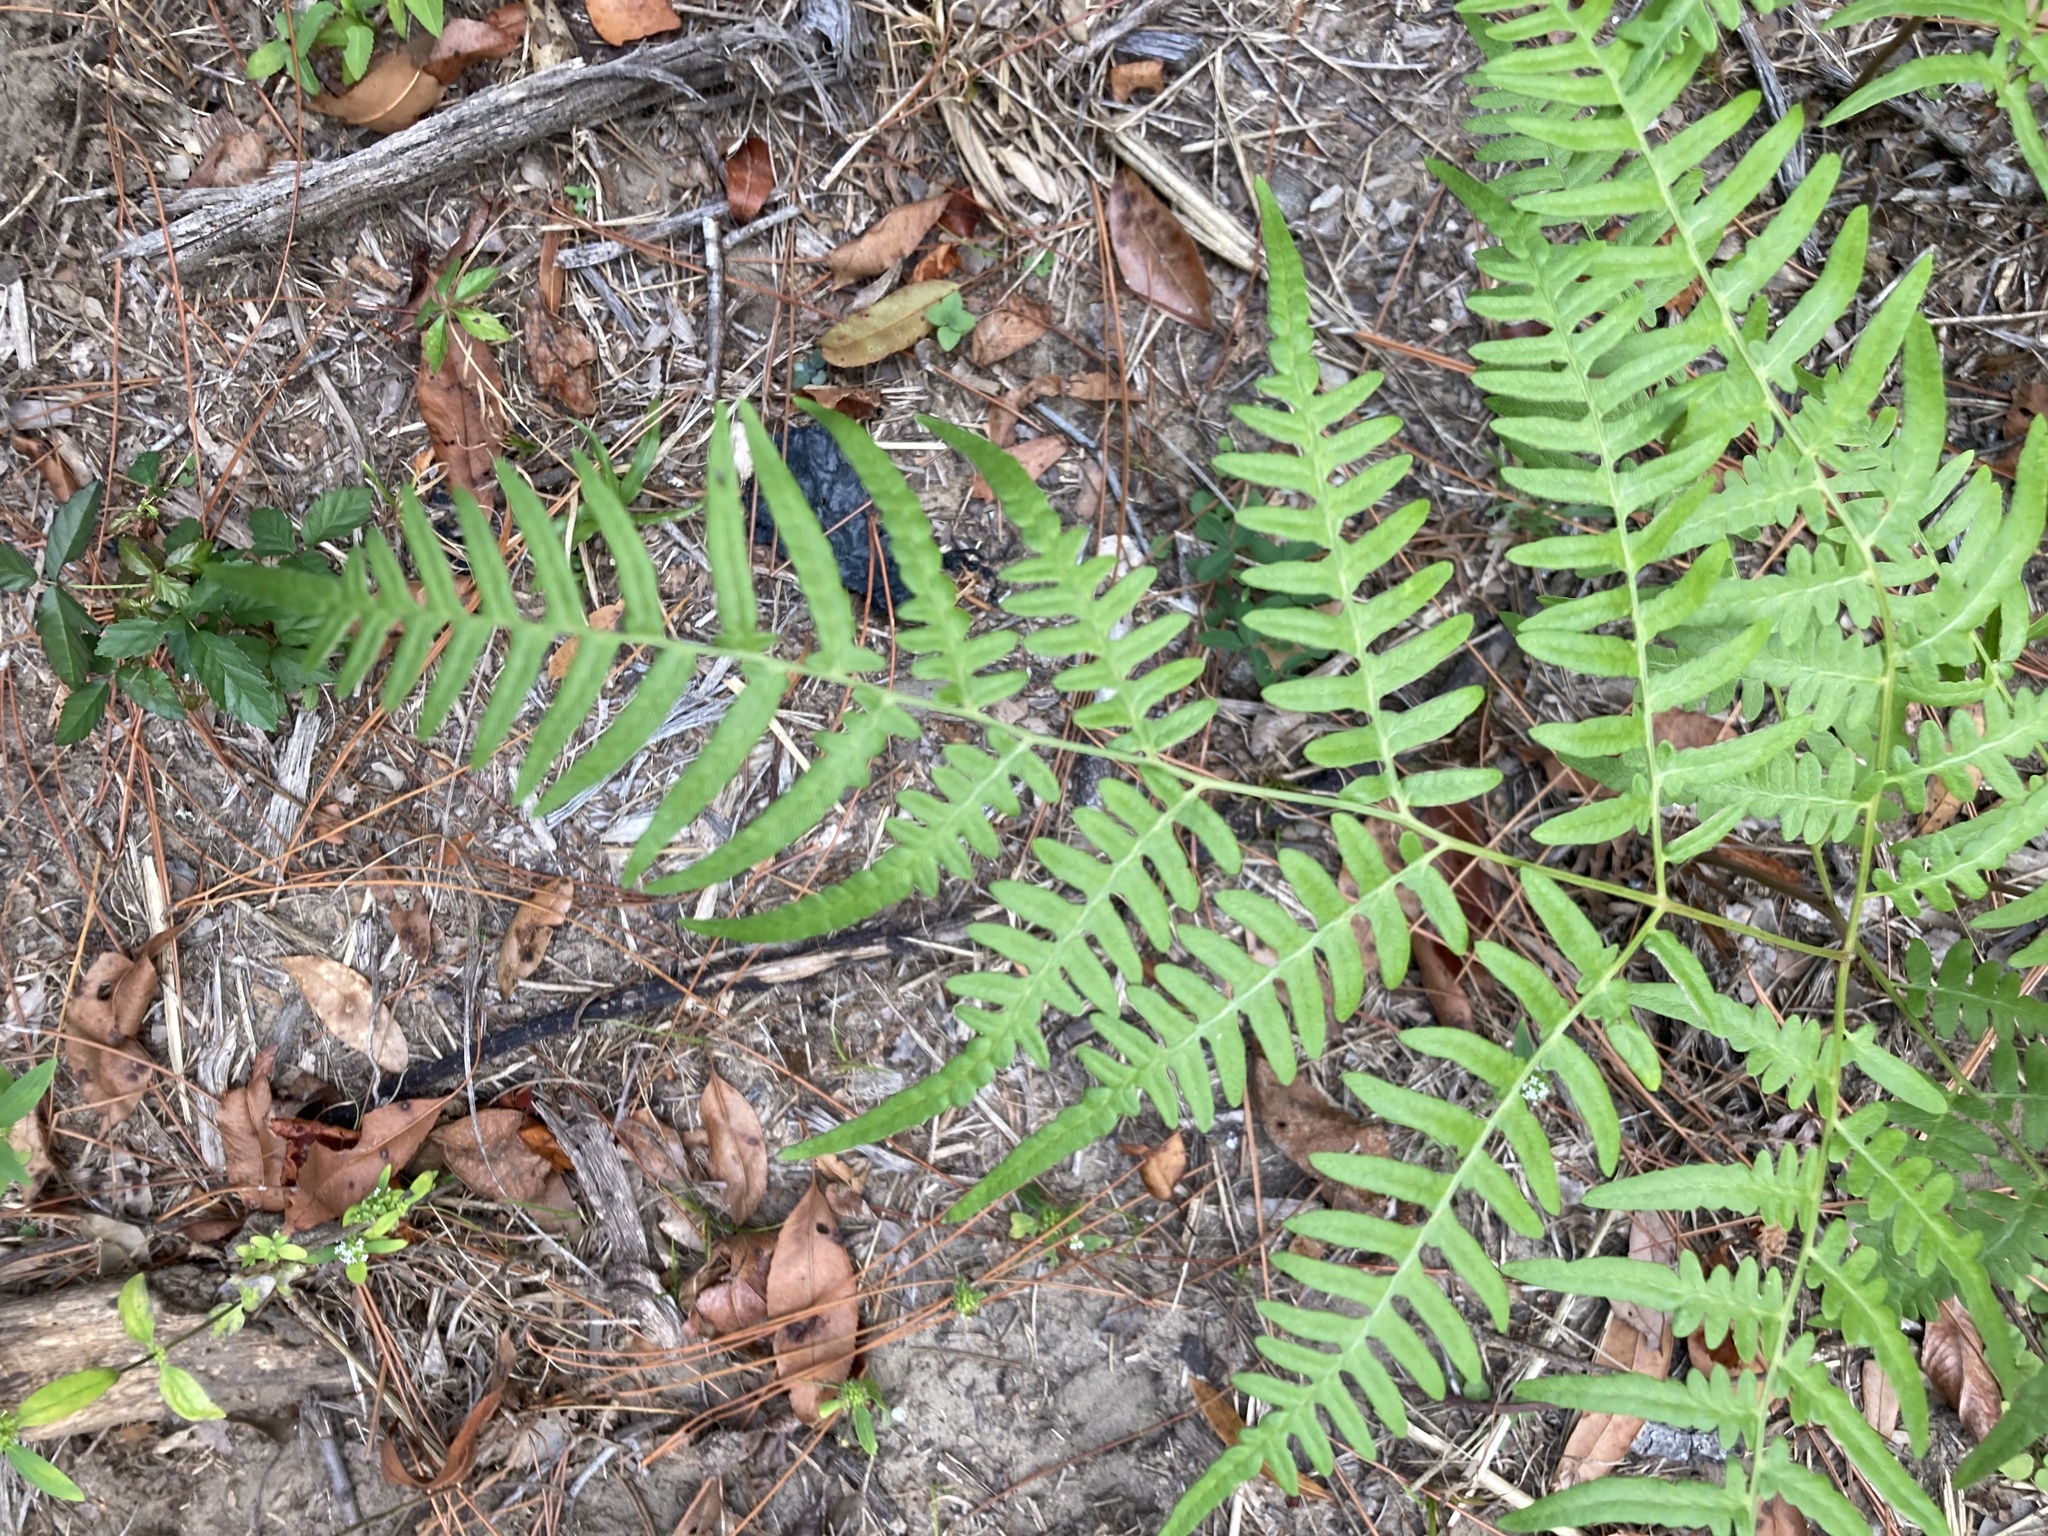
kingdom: Plantae
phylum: Tracheophyta
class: Polypodiopsida
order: Polypodiales
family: Dennstaedtiaceae
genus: Pteridium
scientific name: Pteridium
